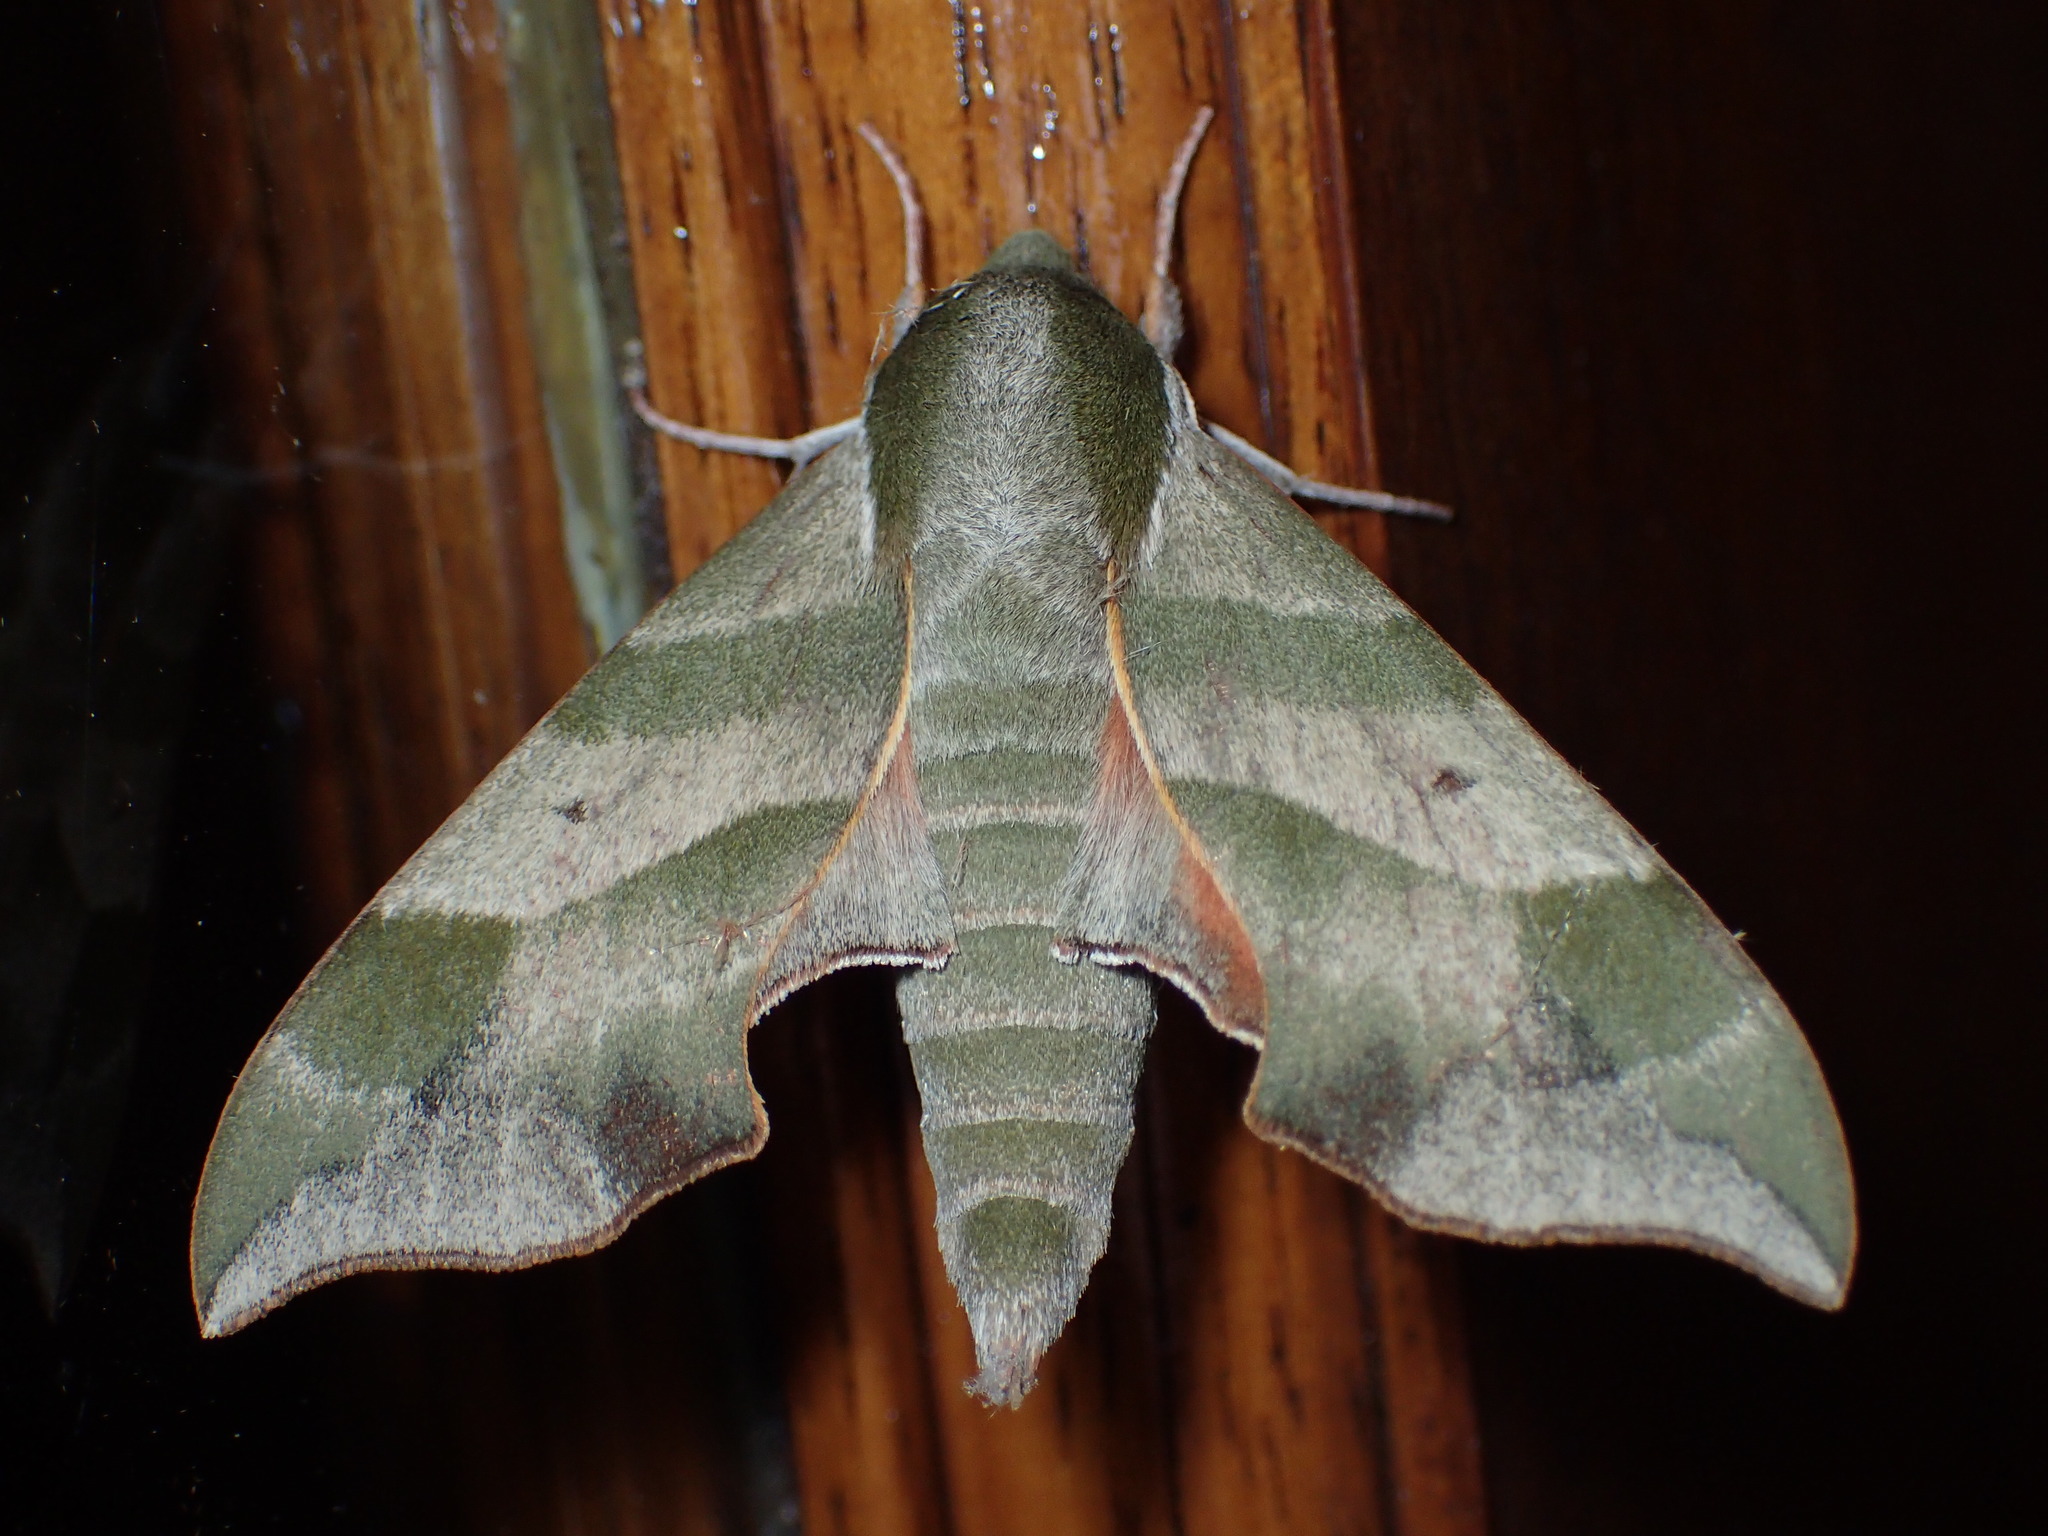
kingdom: Animalia
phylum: Arthropoda
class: Insecta
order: Lepidoptera
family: Sphingidae
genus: Darapsa
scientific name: Darapsa myron
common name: Hog sphinx
